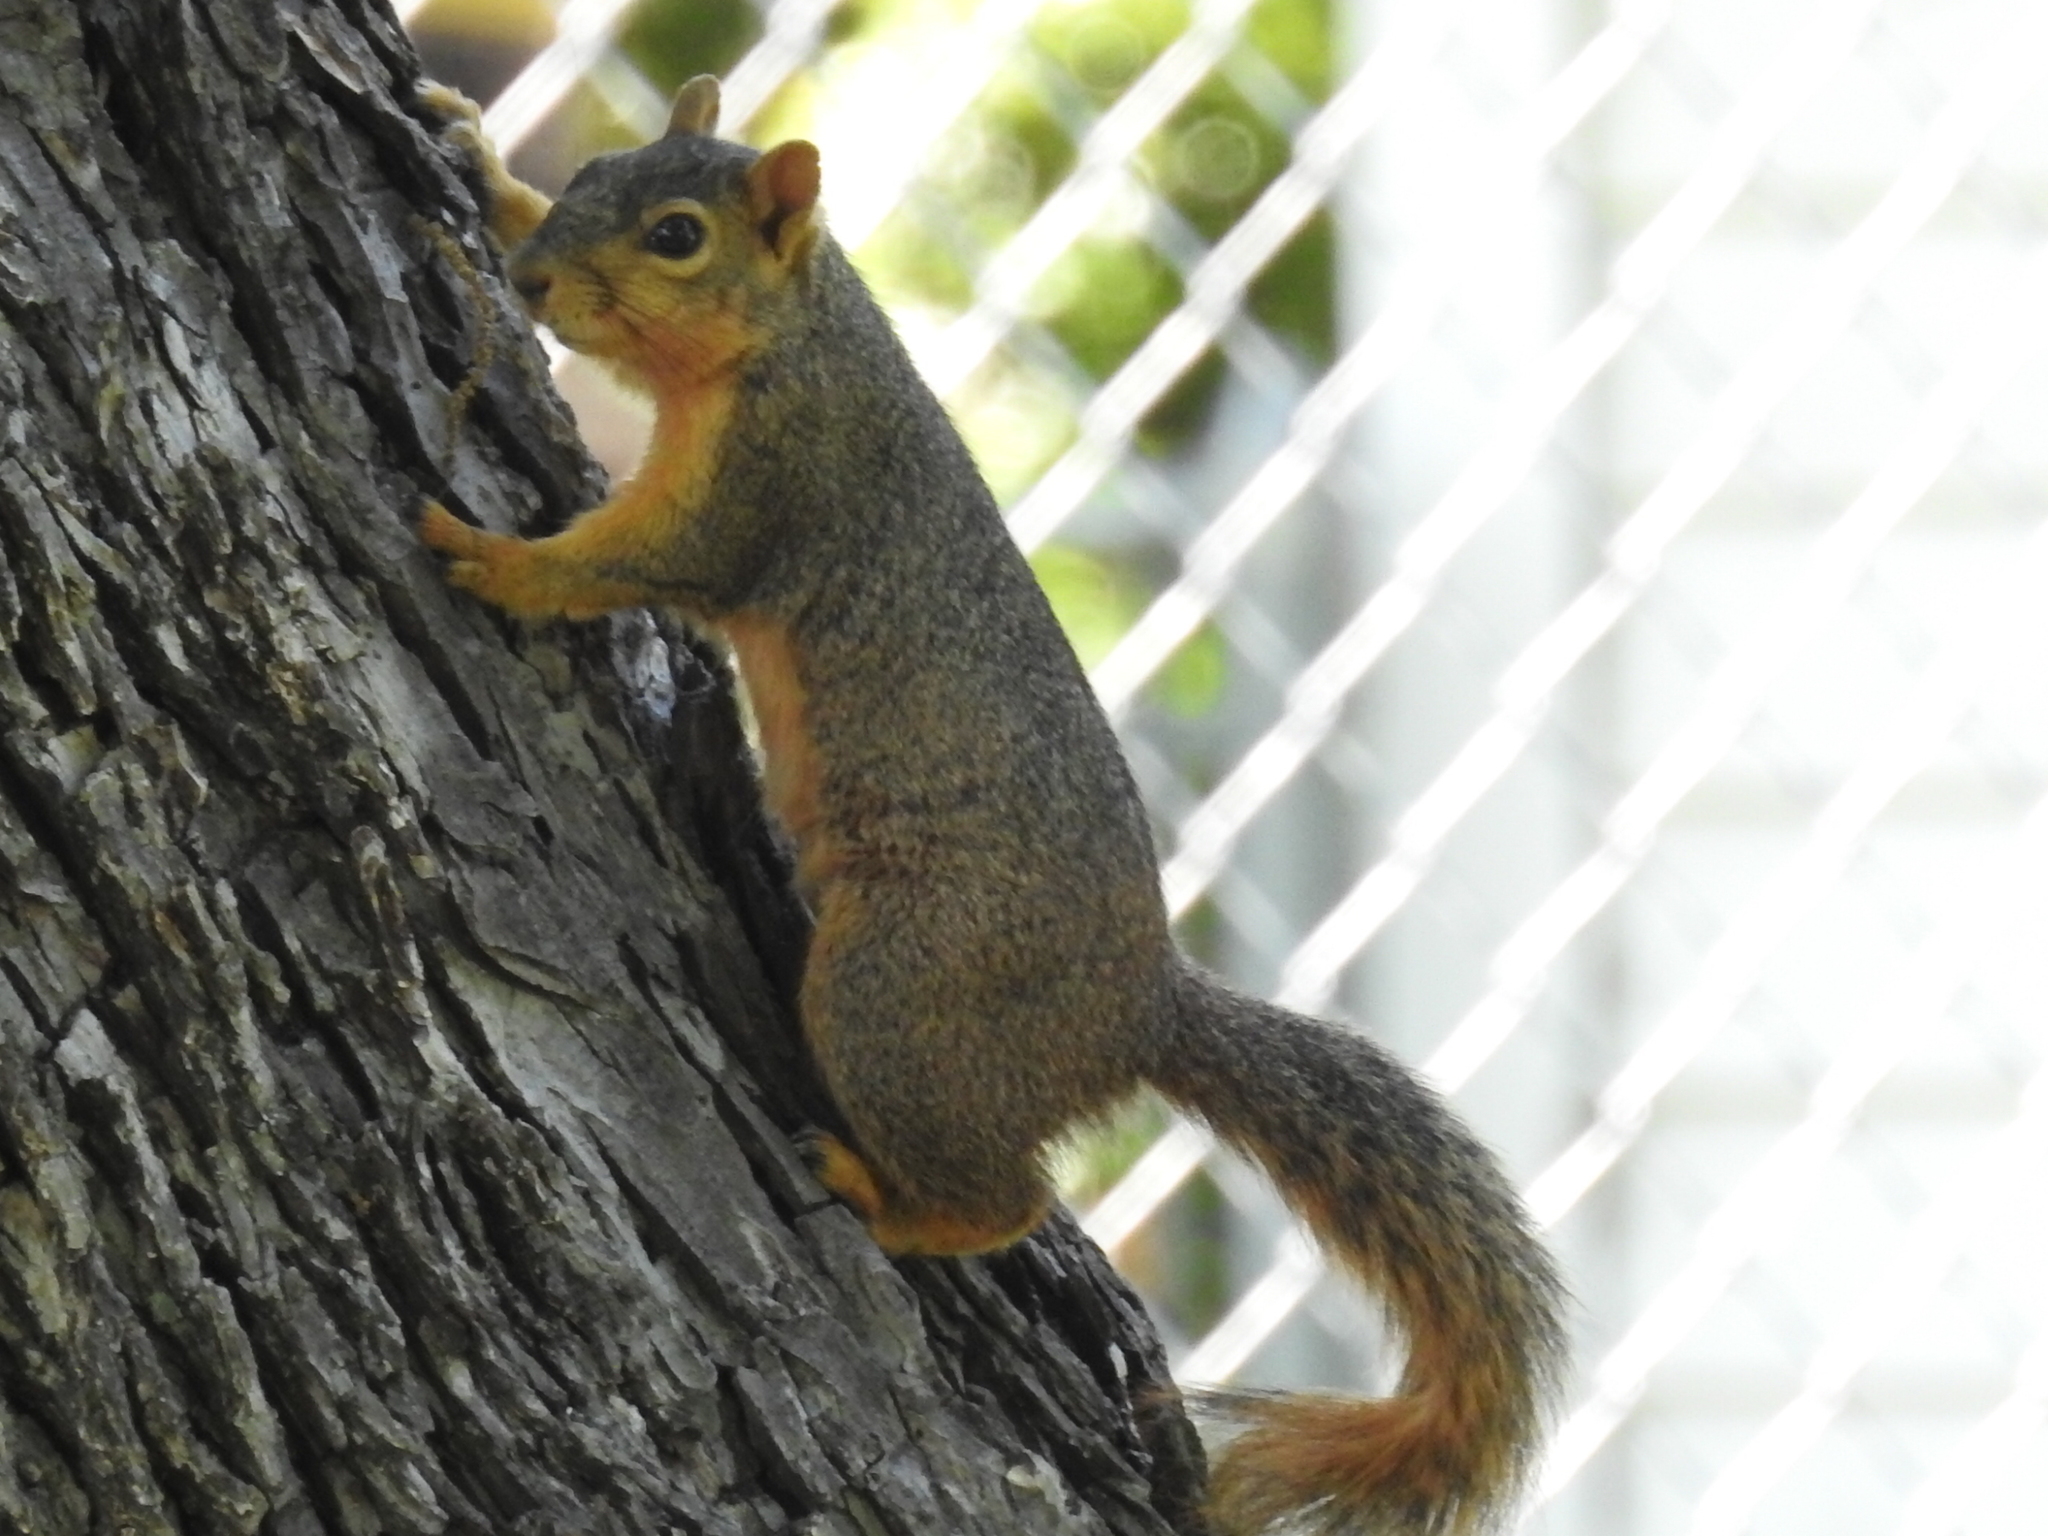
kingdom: Animalia
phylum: Chordata
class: Mammalia
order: Rodentia
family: Sciuridae
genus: Sciurus
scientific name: Sciurus niger
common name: Fox squirrel
